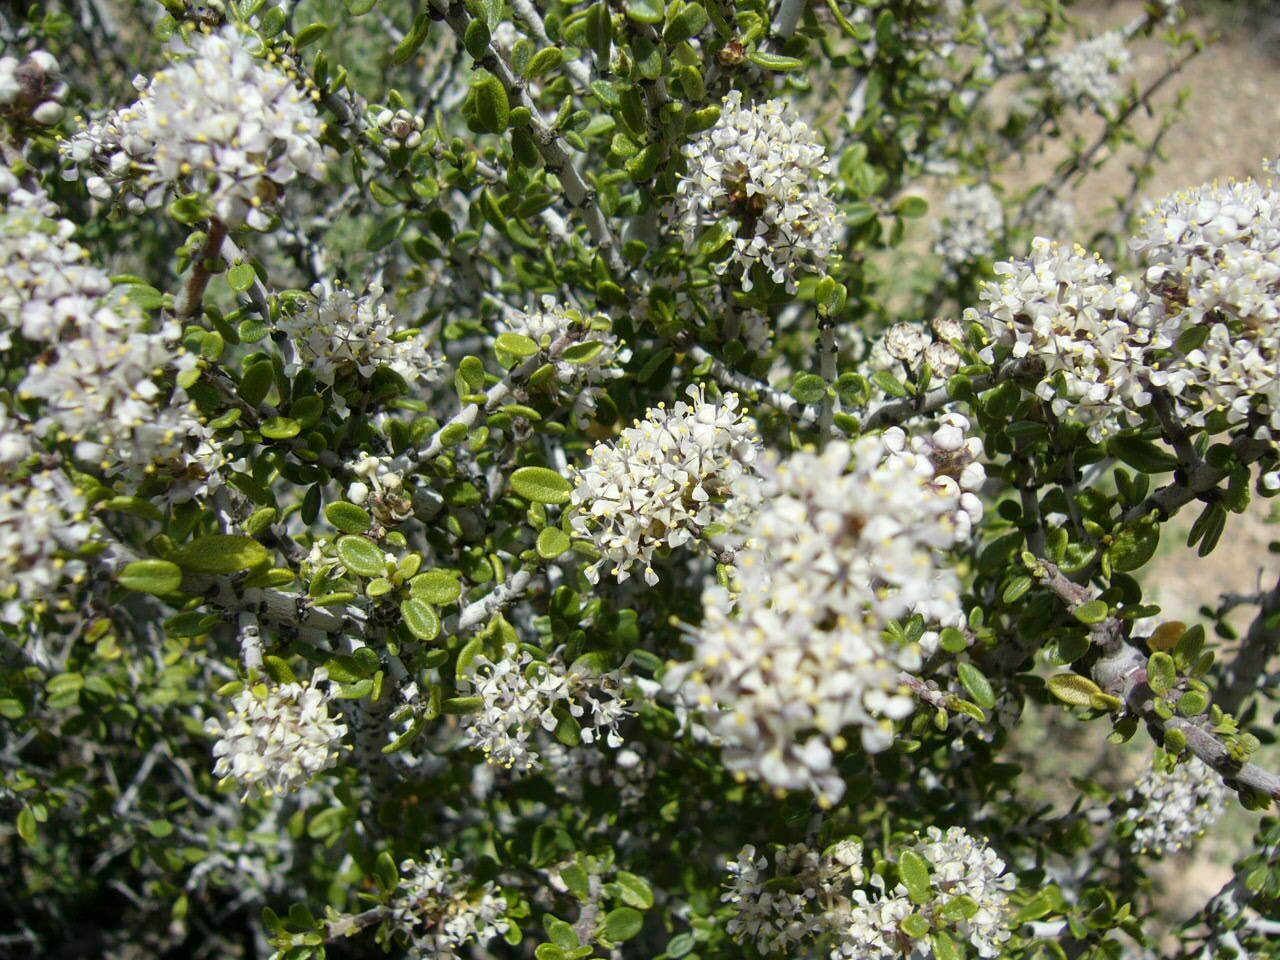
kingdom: Plantae
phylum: Tracheophyta
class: Magnoliopsida
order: Rosales
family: Rhamnaceae
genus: Ceanothus
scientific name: Ceanothus pauciflorus
